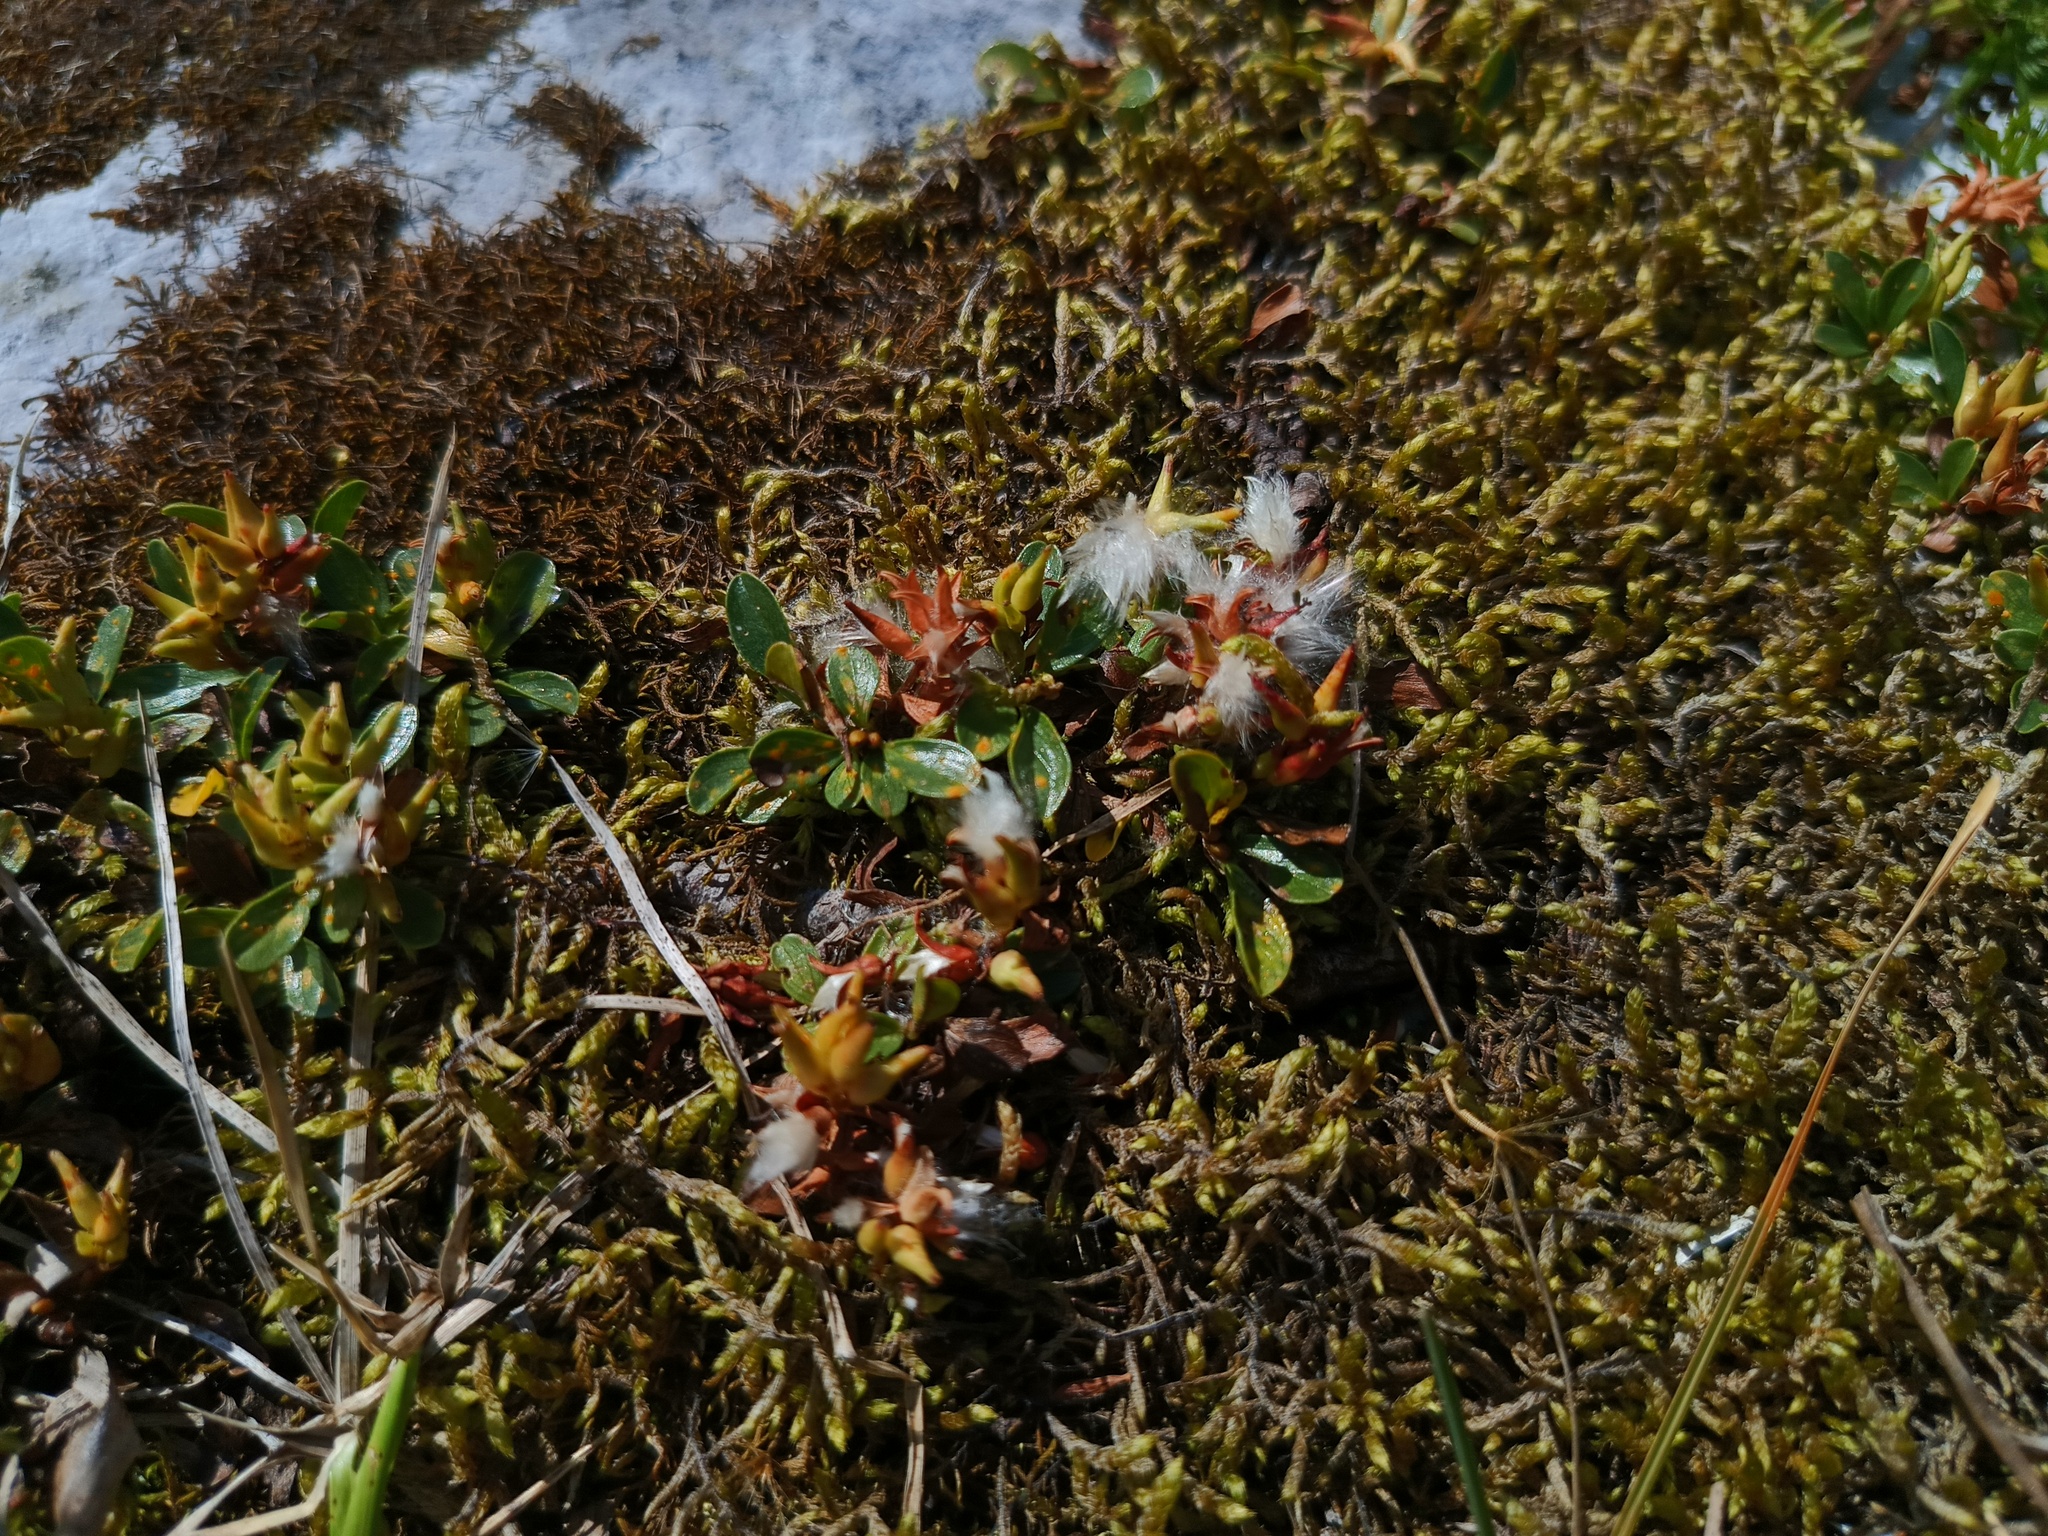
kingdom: Plantae
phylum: Tracheophyta
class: Magnoliopsida
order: Malpighiales
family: Salicaceae
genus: Salix
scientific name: Salix retusa
